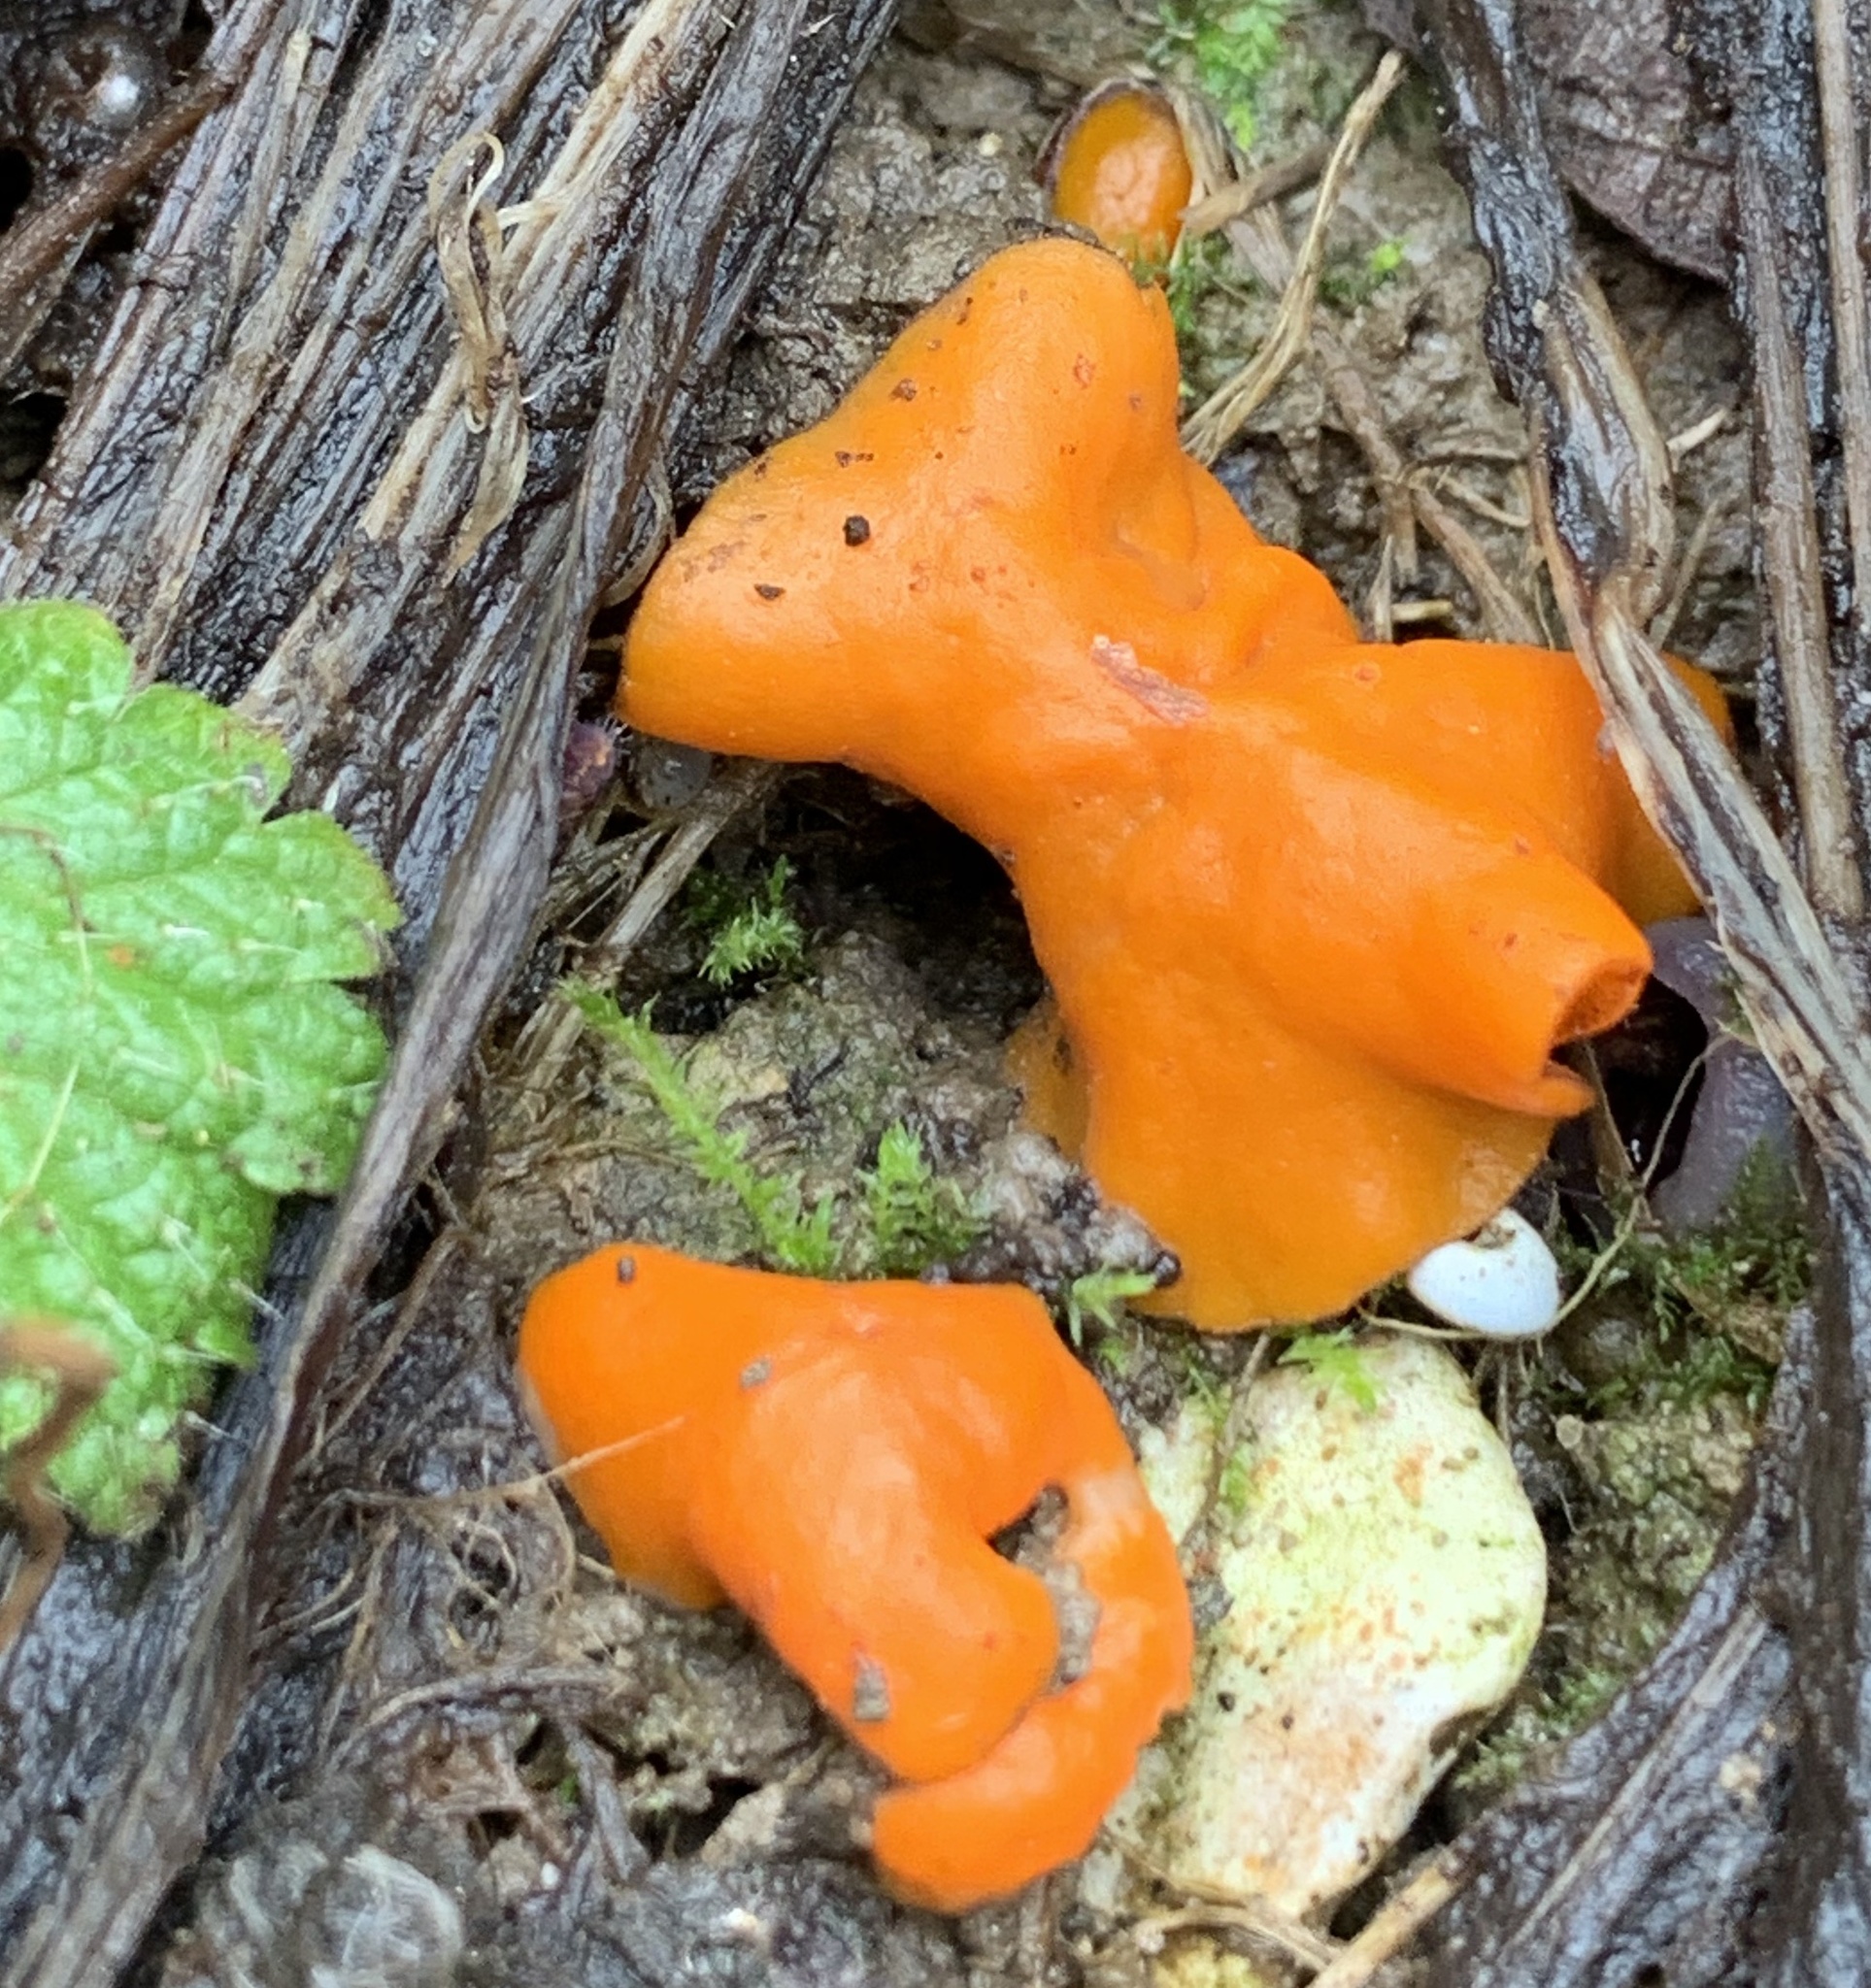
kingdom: Fungi
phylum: Ascomycota
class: Pezizomycetes
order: Pezizales
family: Pyronemataceae
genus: Aleuria
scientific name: Aleuria aurantia
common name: Orange peel fungus
